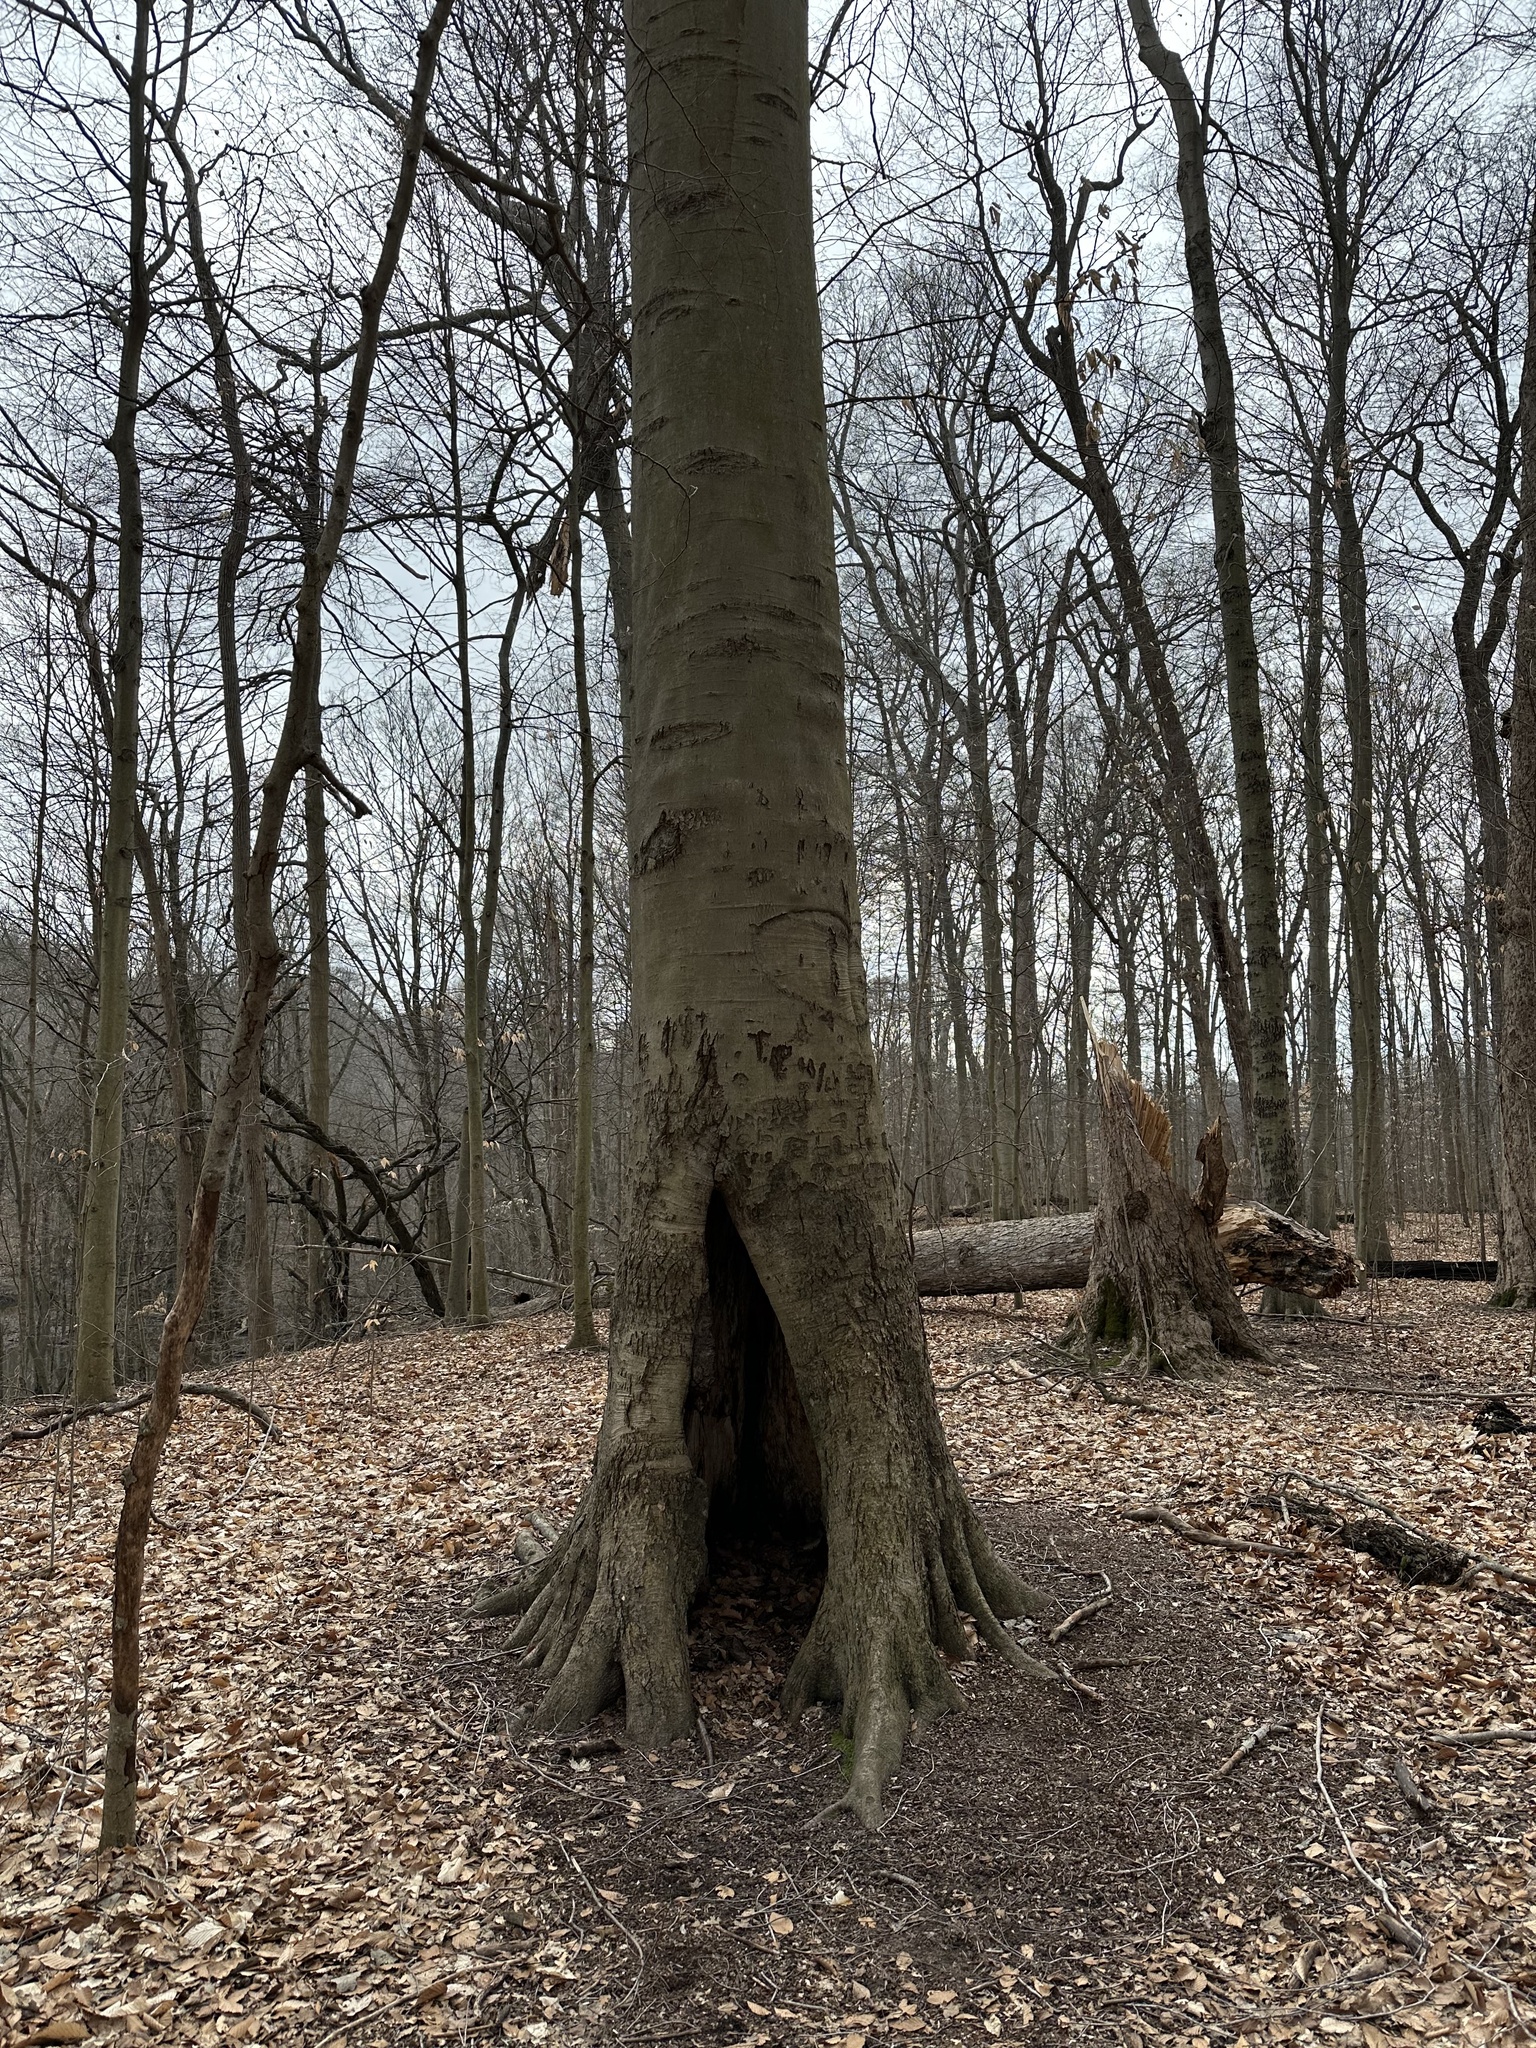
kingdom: Plantae
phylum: Tracheophyta
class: Magnoliopsida
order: Fagales
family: Fagaceae
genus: Fagus
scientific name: Fagus grandifolia
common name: American beech
